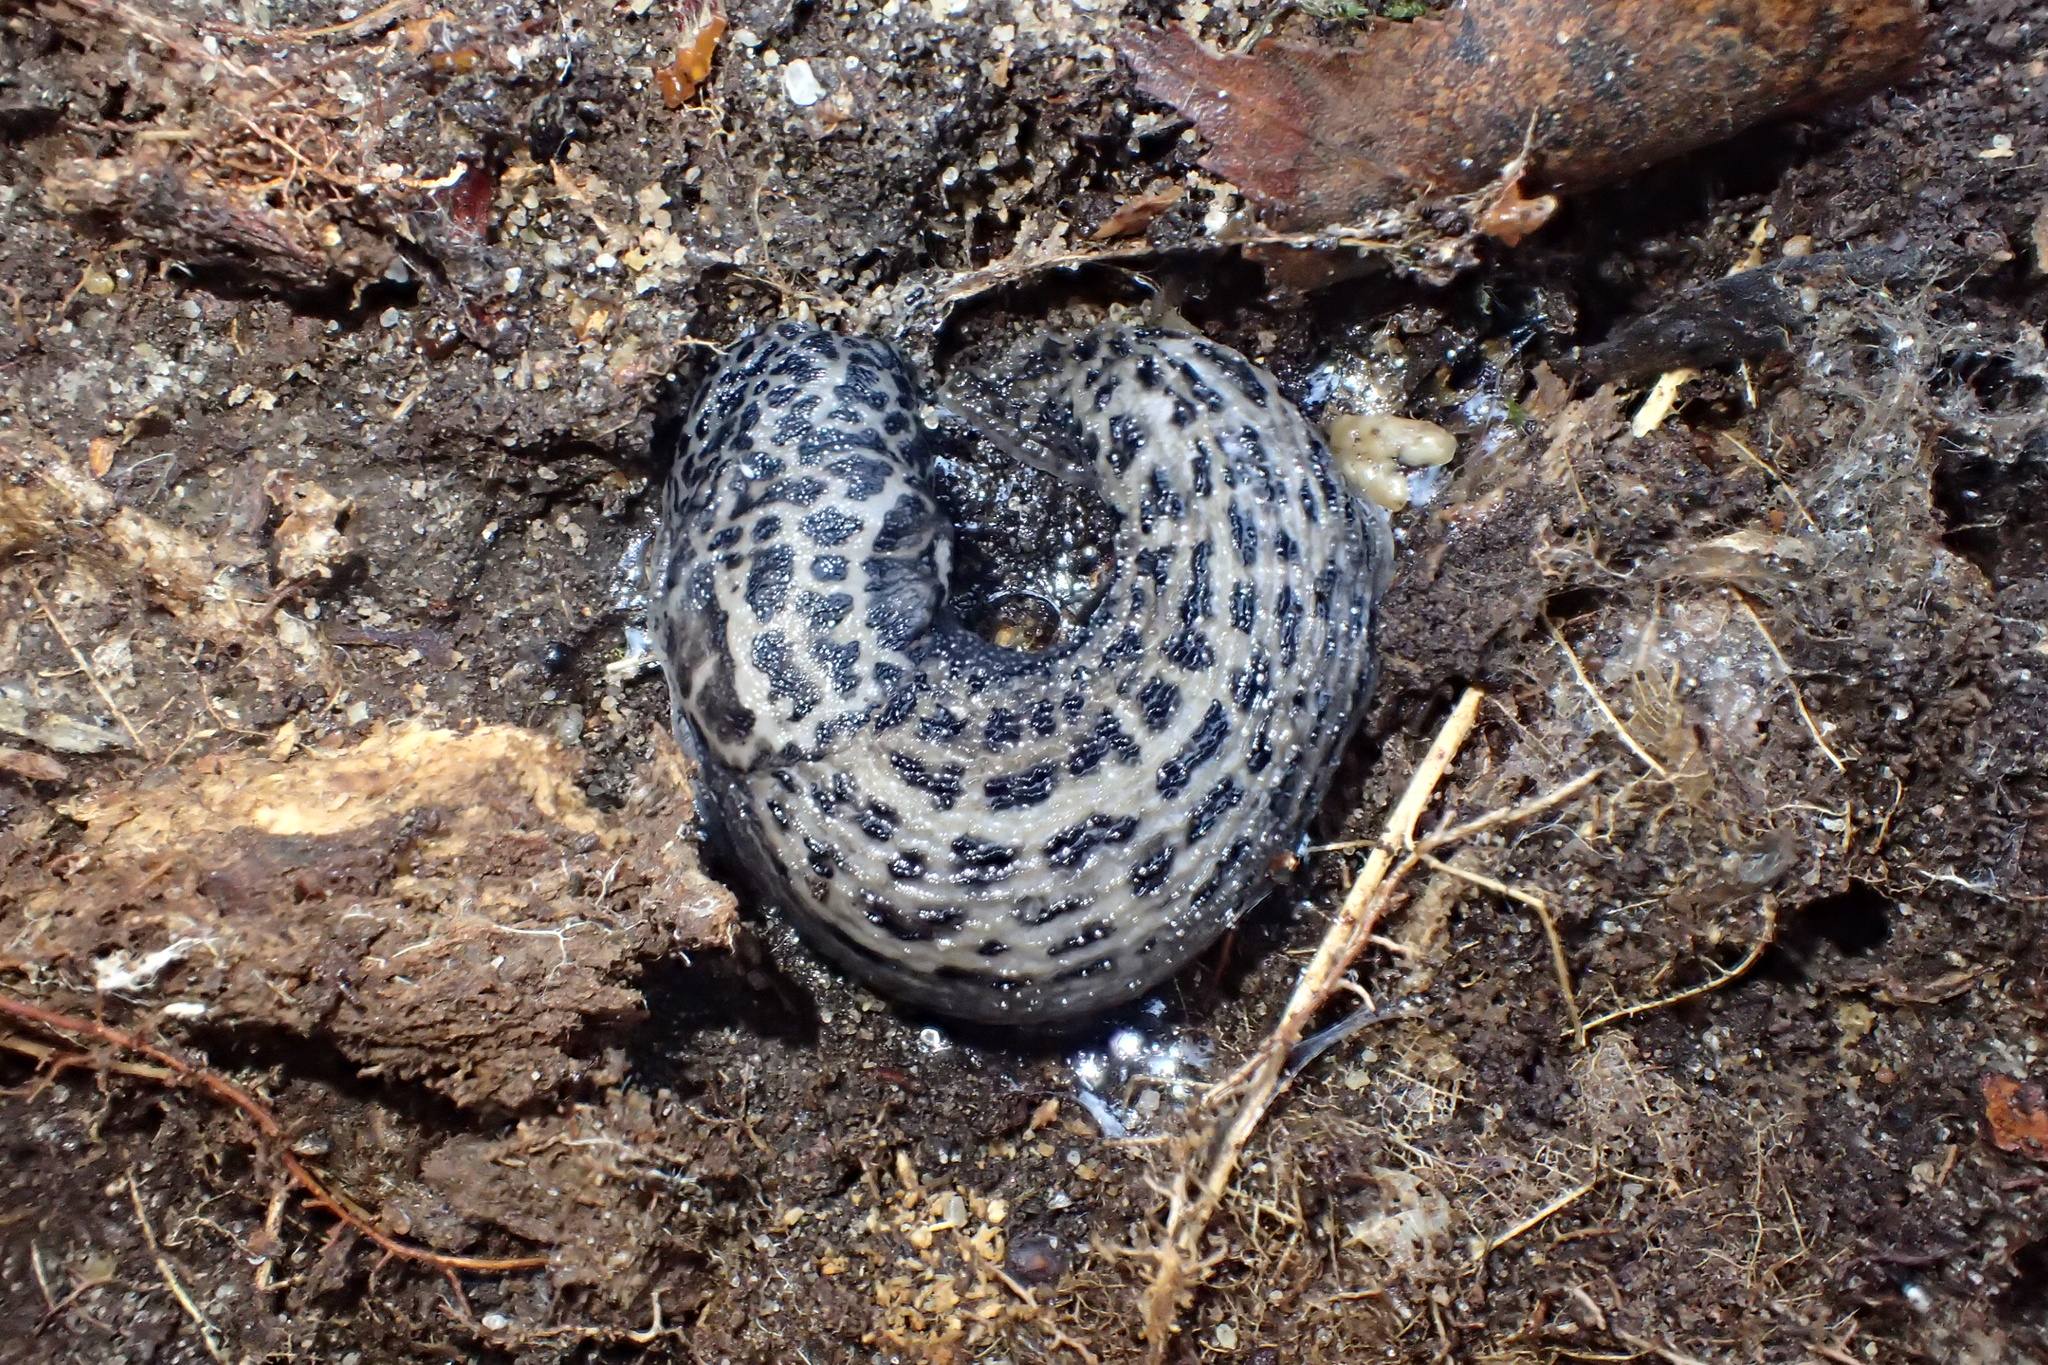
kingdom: Animalia
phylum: Mollusca
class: Gastropoda
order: Stylommatophora
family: Limacidae
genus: Limax
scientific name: Limax maximus
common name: Great grey slug
